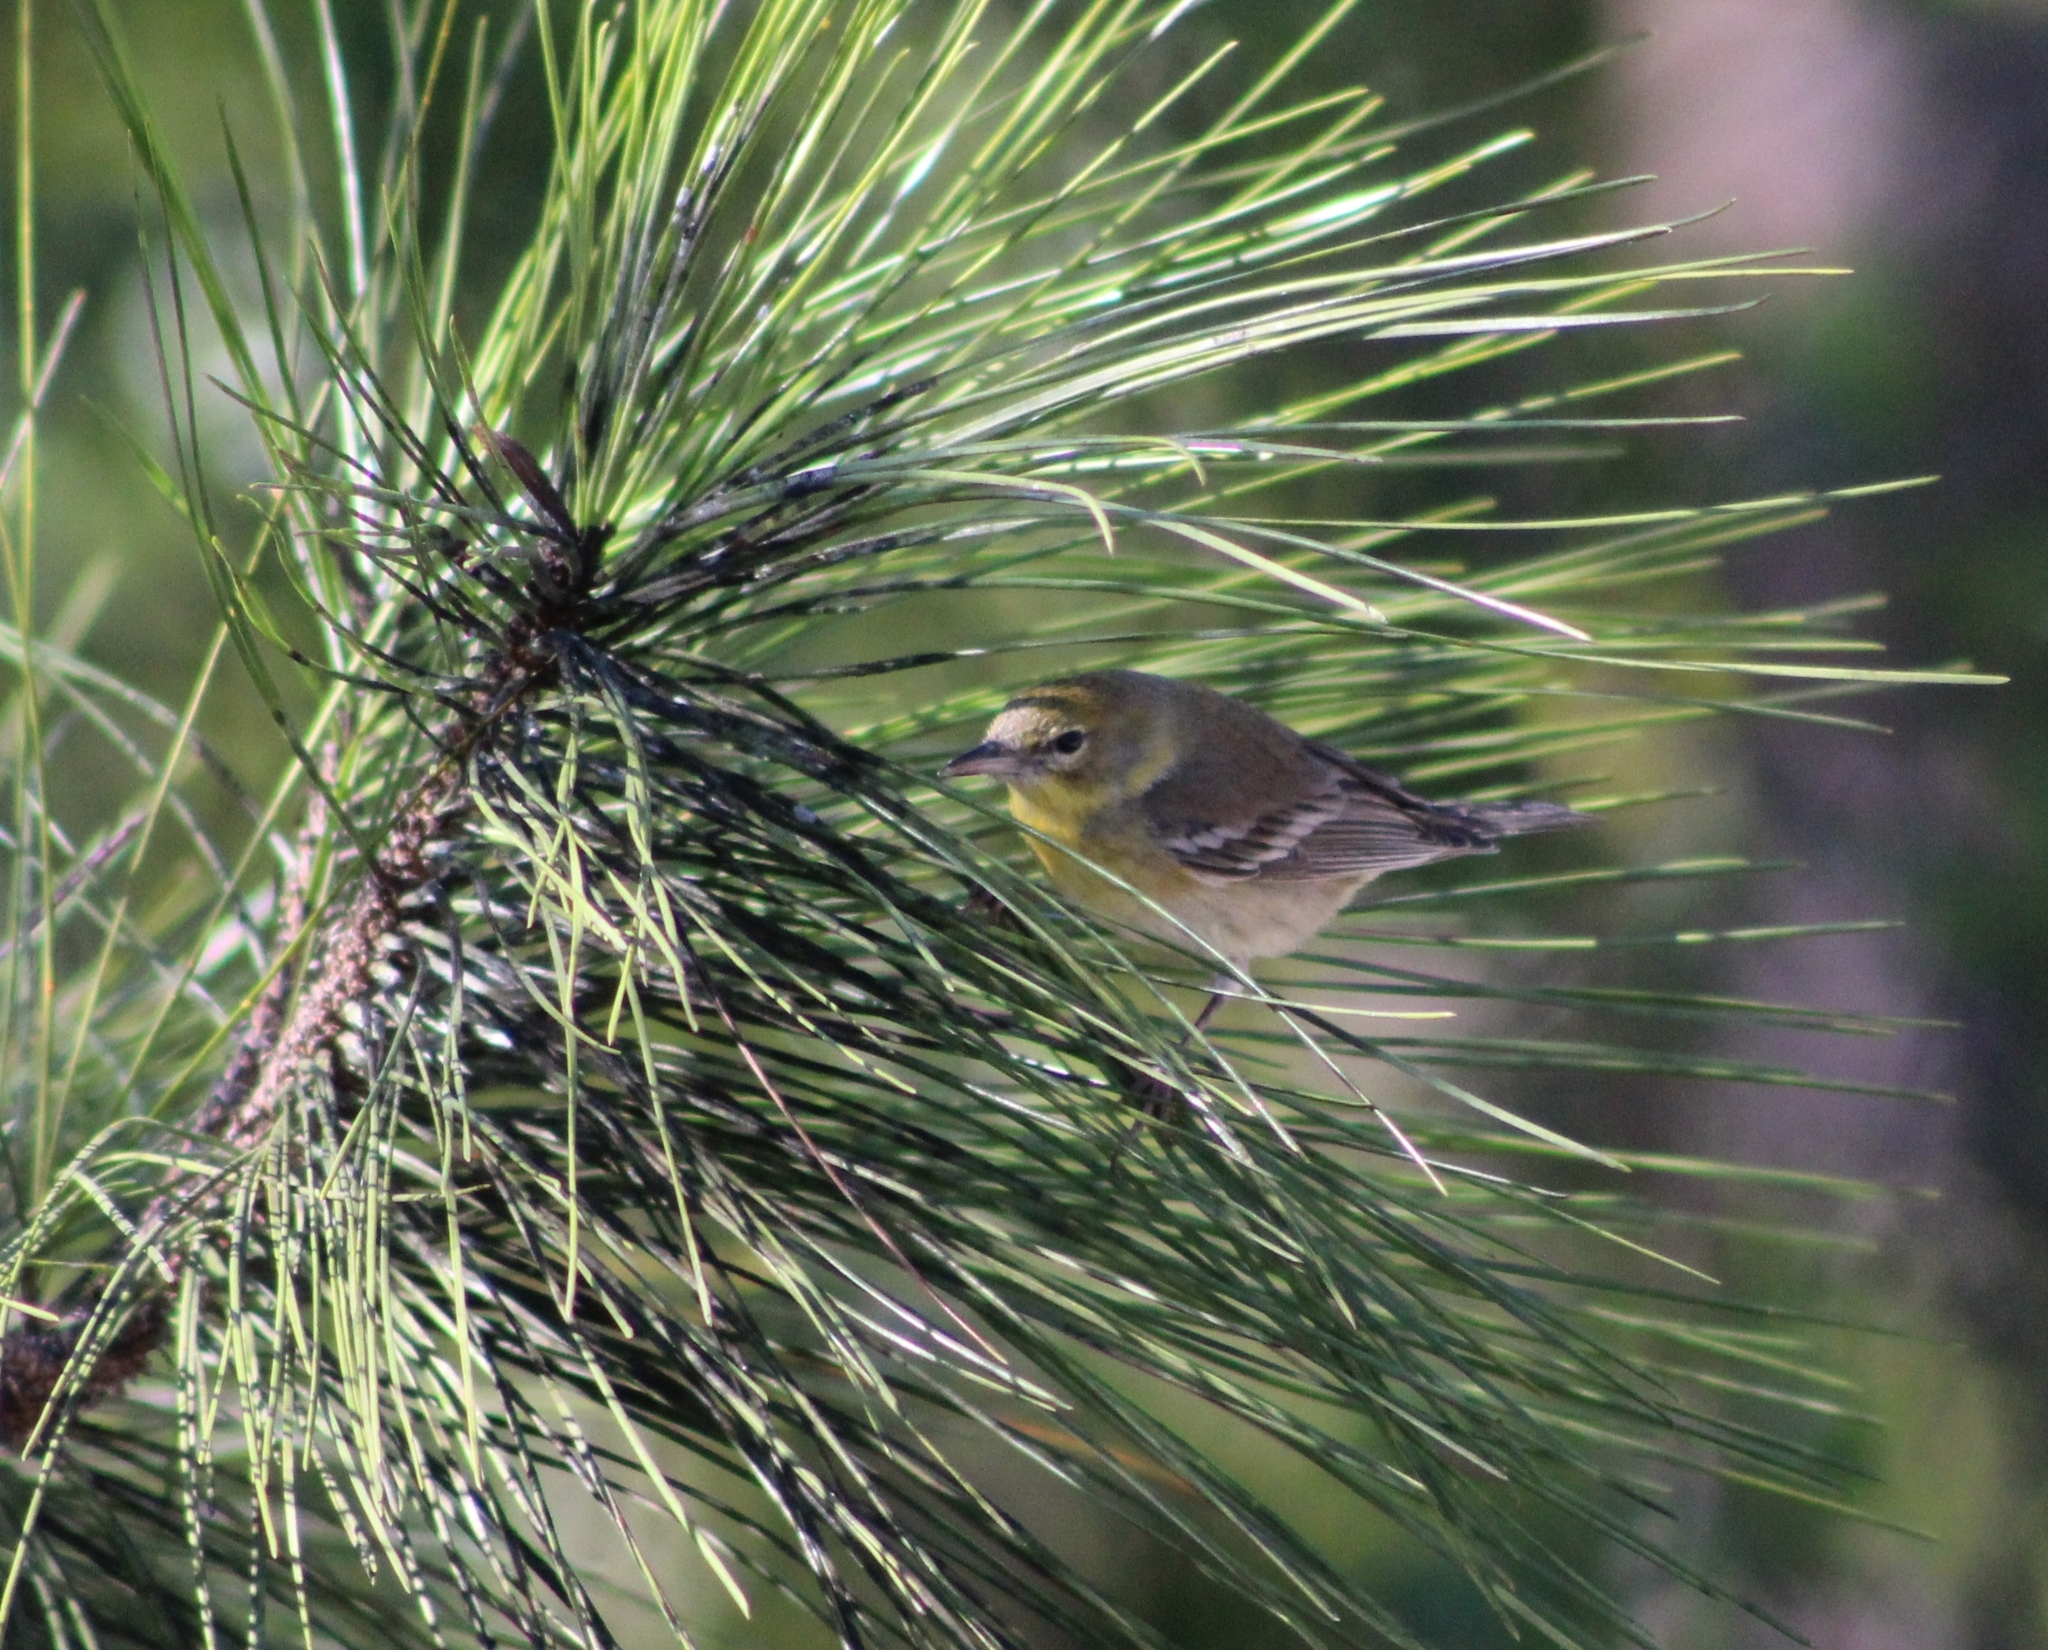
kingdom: Animalia
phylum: Chordata
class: Aves
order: Passeriformes
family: Parulidae
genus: Setophaga
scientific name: Setophaga pinus
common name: Pine warbler
